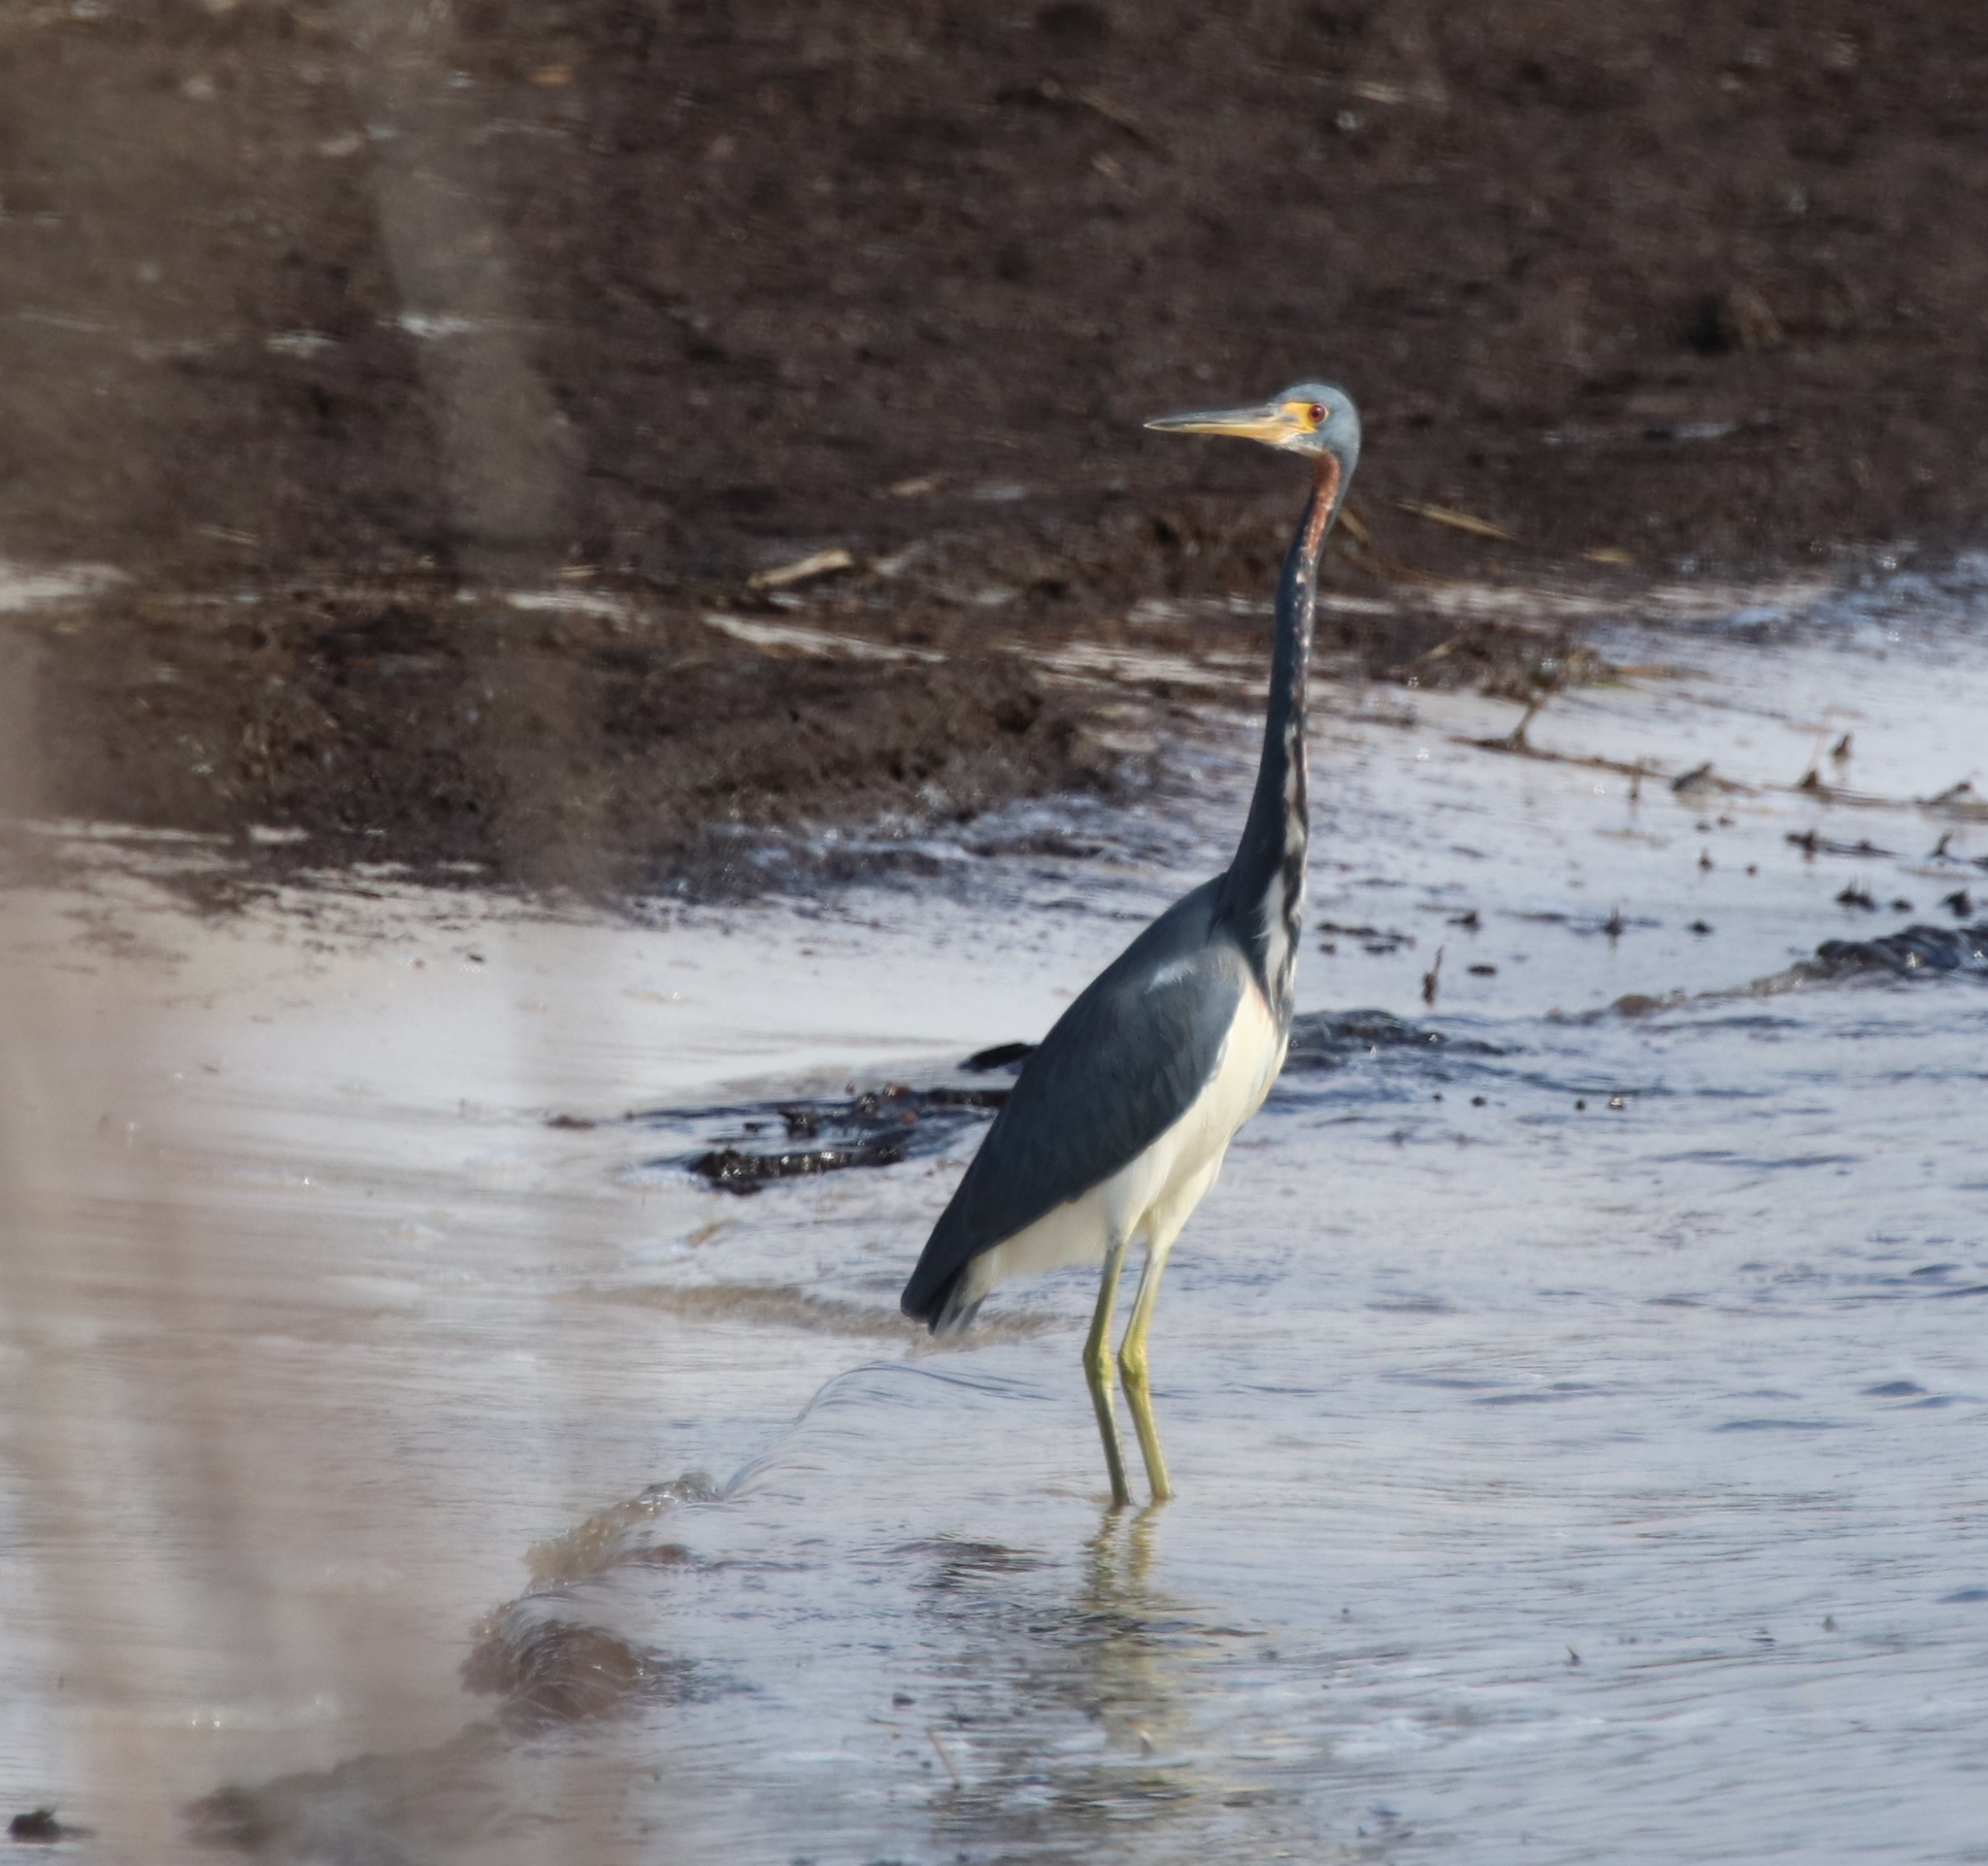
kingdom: Animalia
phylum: Chordata
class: Aves
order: Pelecaniformes
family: Ardeidae
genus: Egretta
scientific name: Egretta tricolor
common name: Tricolored heron
